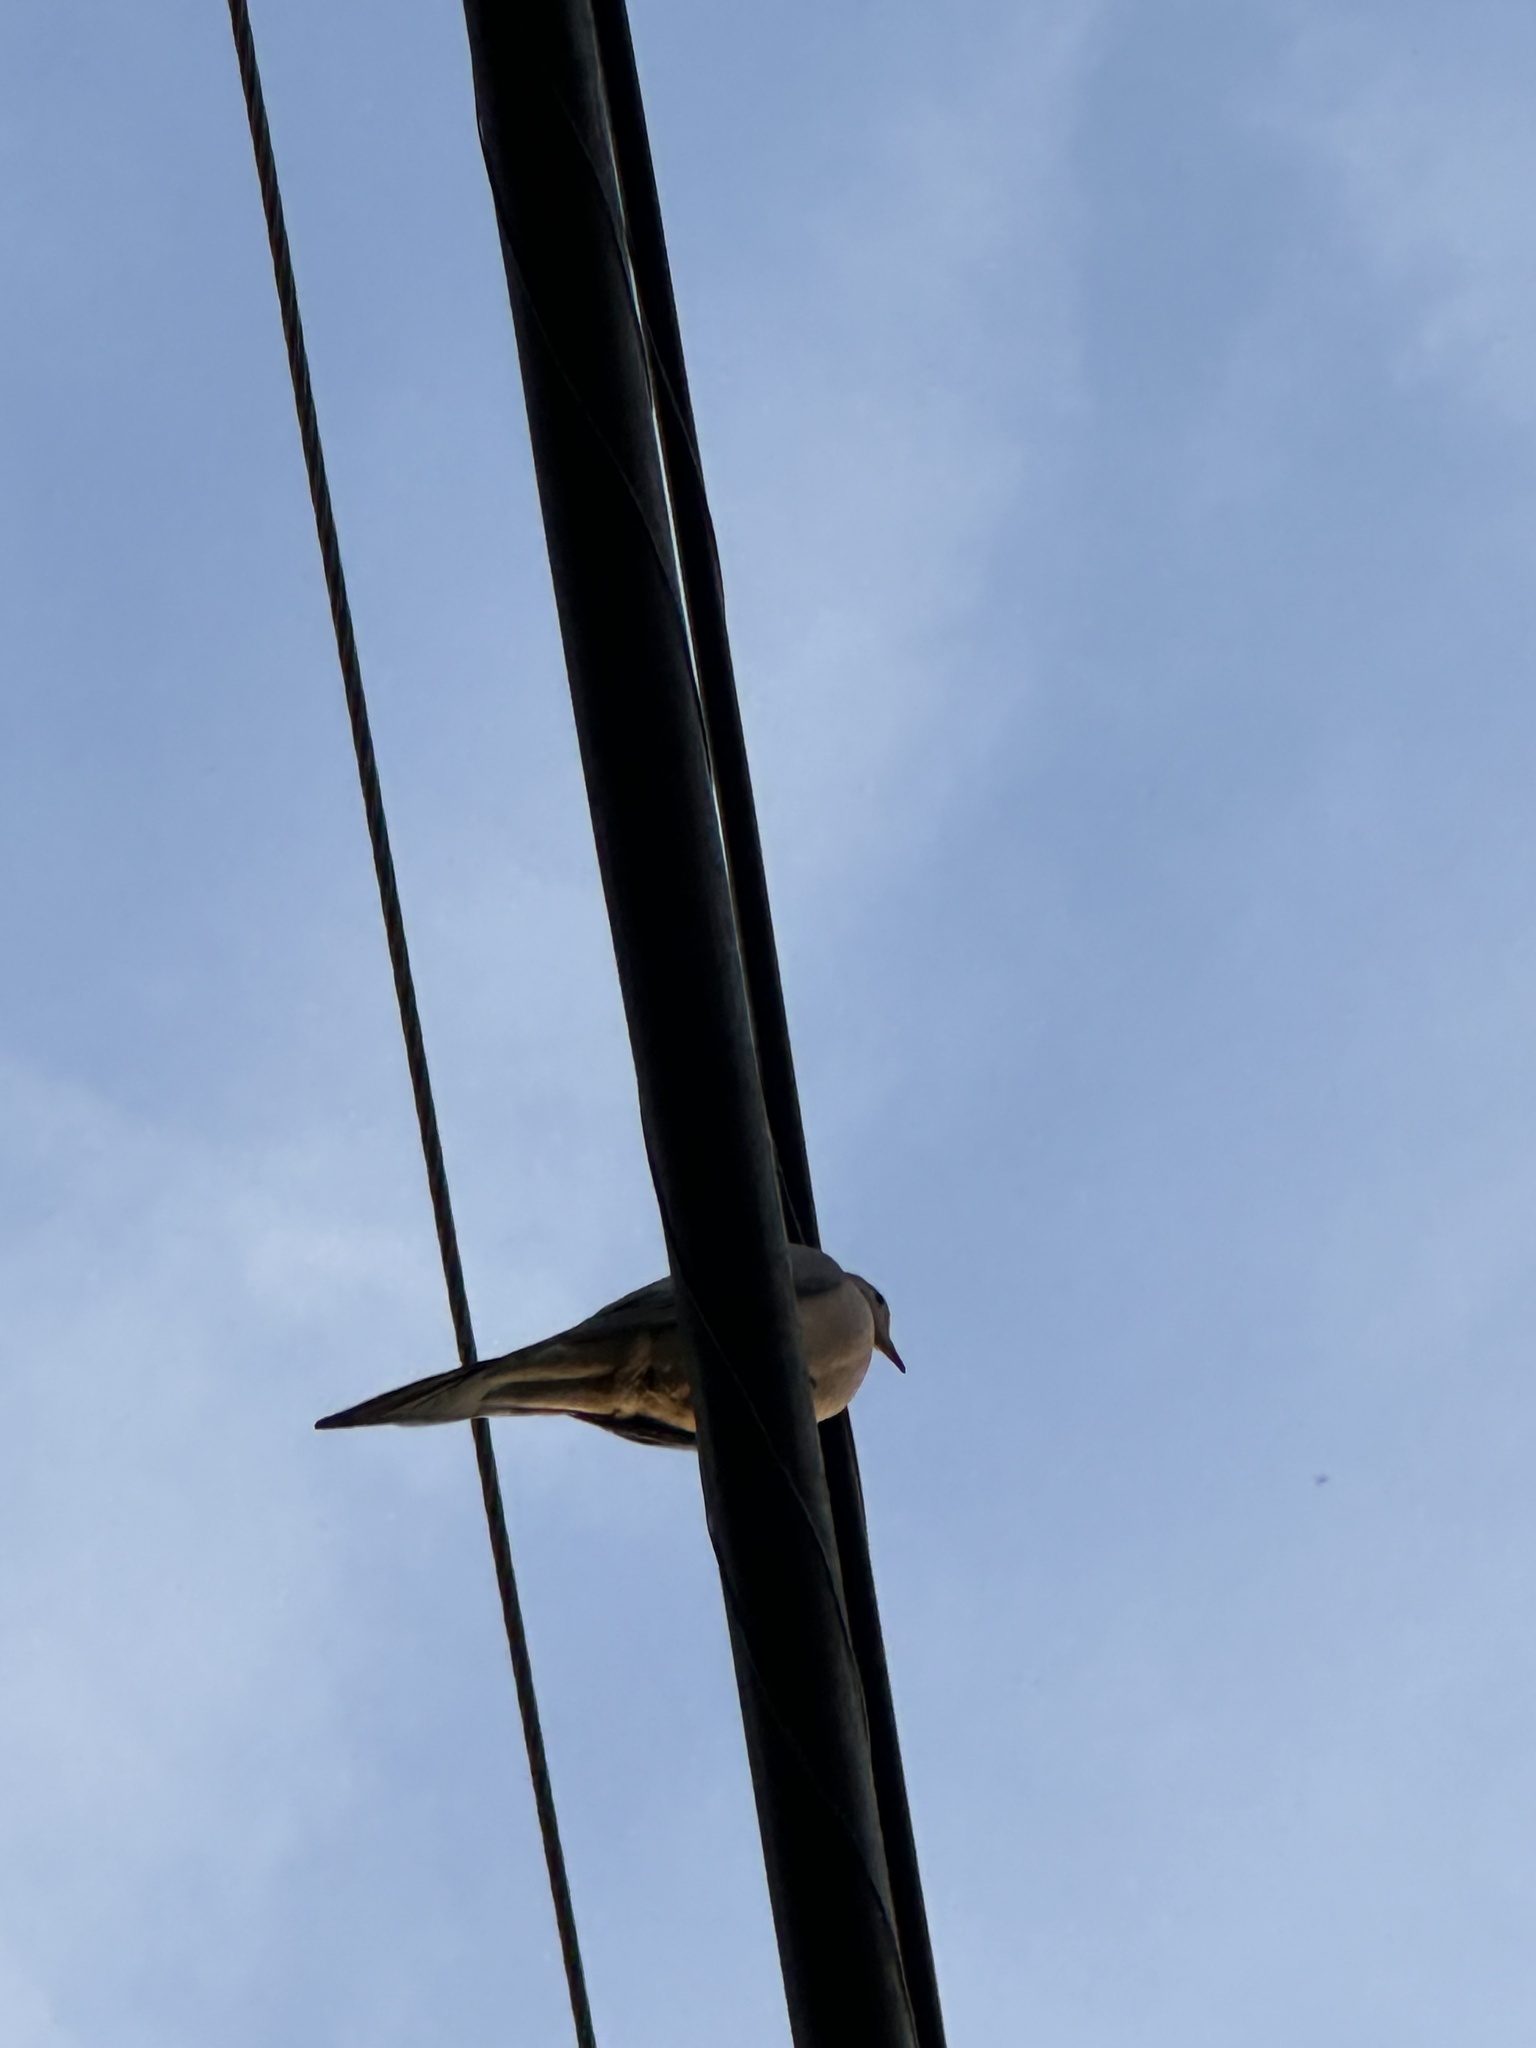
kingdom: Animalia
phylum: Chordata
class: Aves
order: Columbiformes
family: Columbidae
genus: Zenaida
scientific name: Zenaida macroura
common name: Mourning dove
